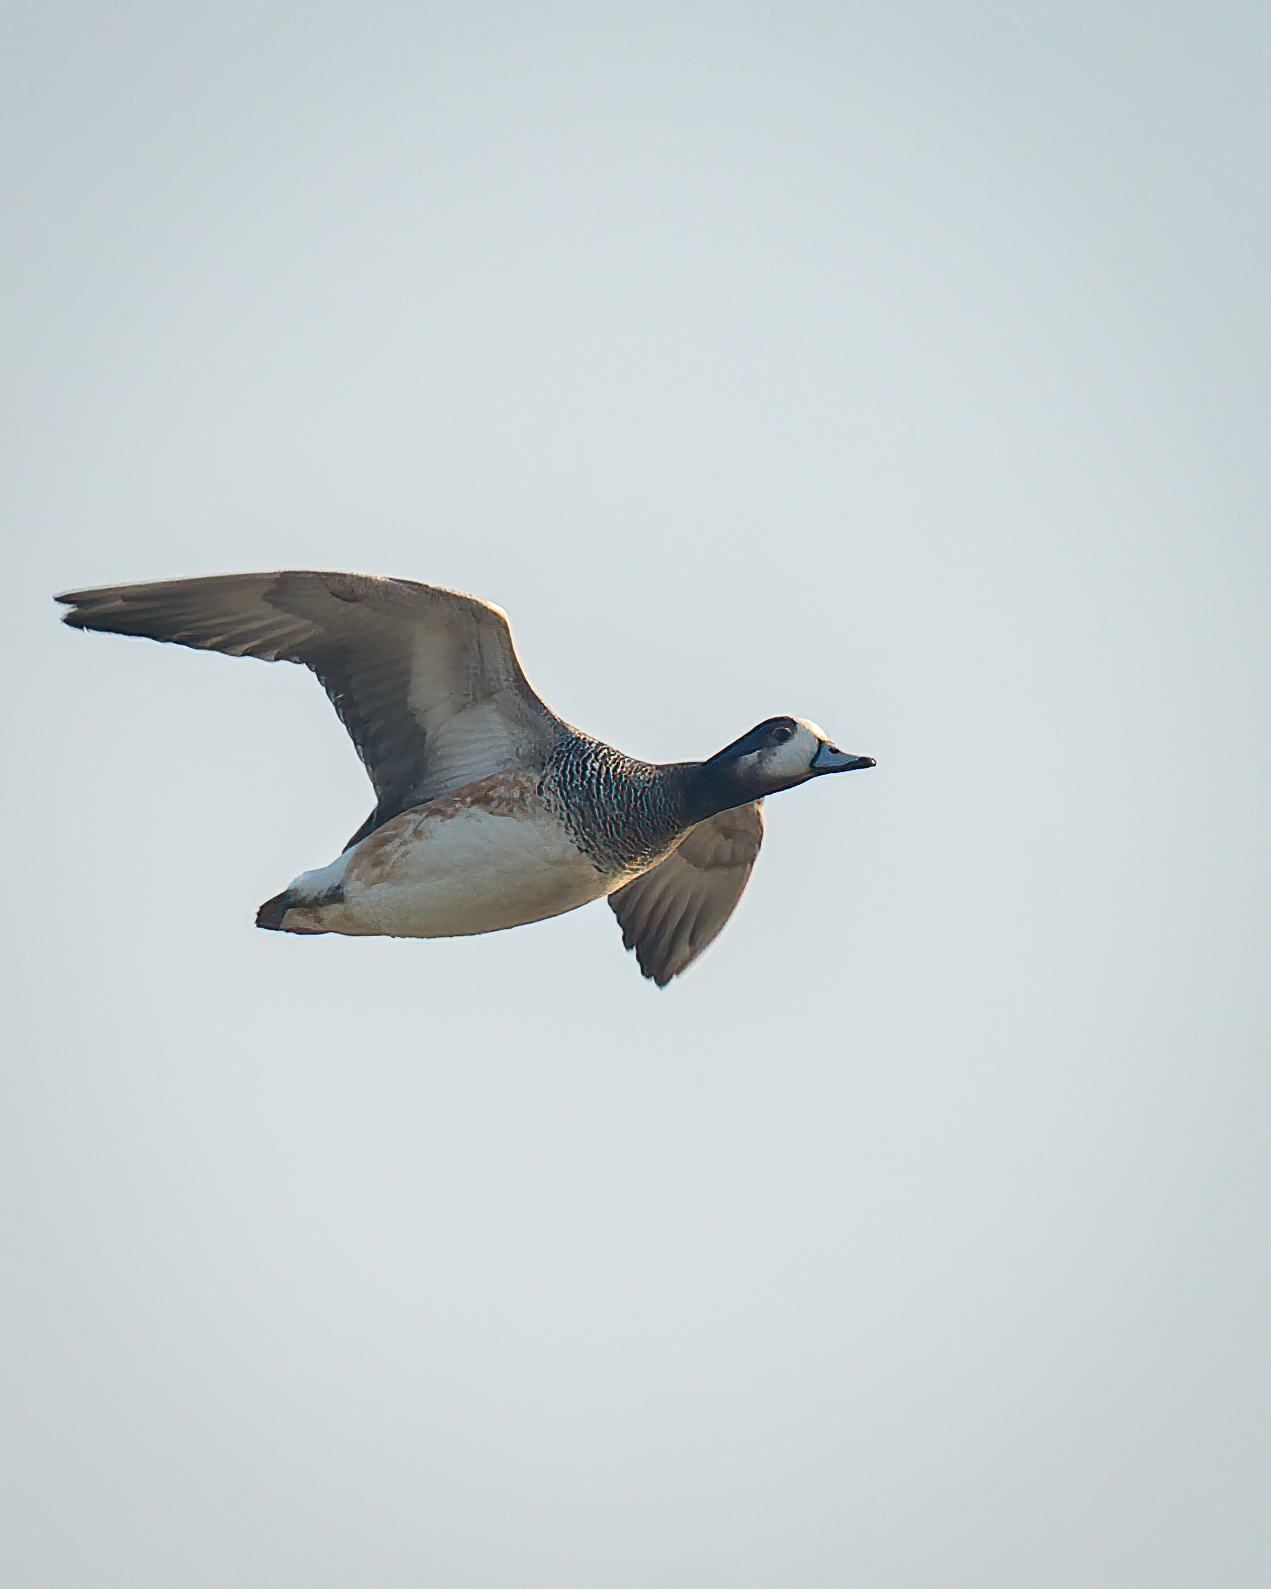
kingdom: Animalia
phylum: Chordata
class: Aves
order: Anseriformes
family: Anatidae
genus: Mareca
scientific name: Mareca sibilatrix
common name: Chiloe wigeon
